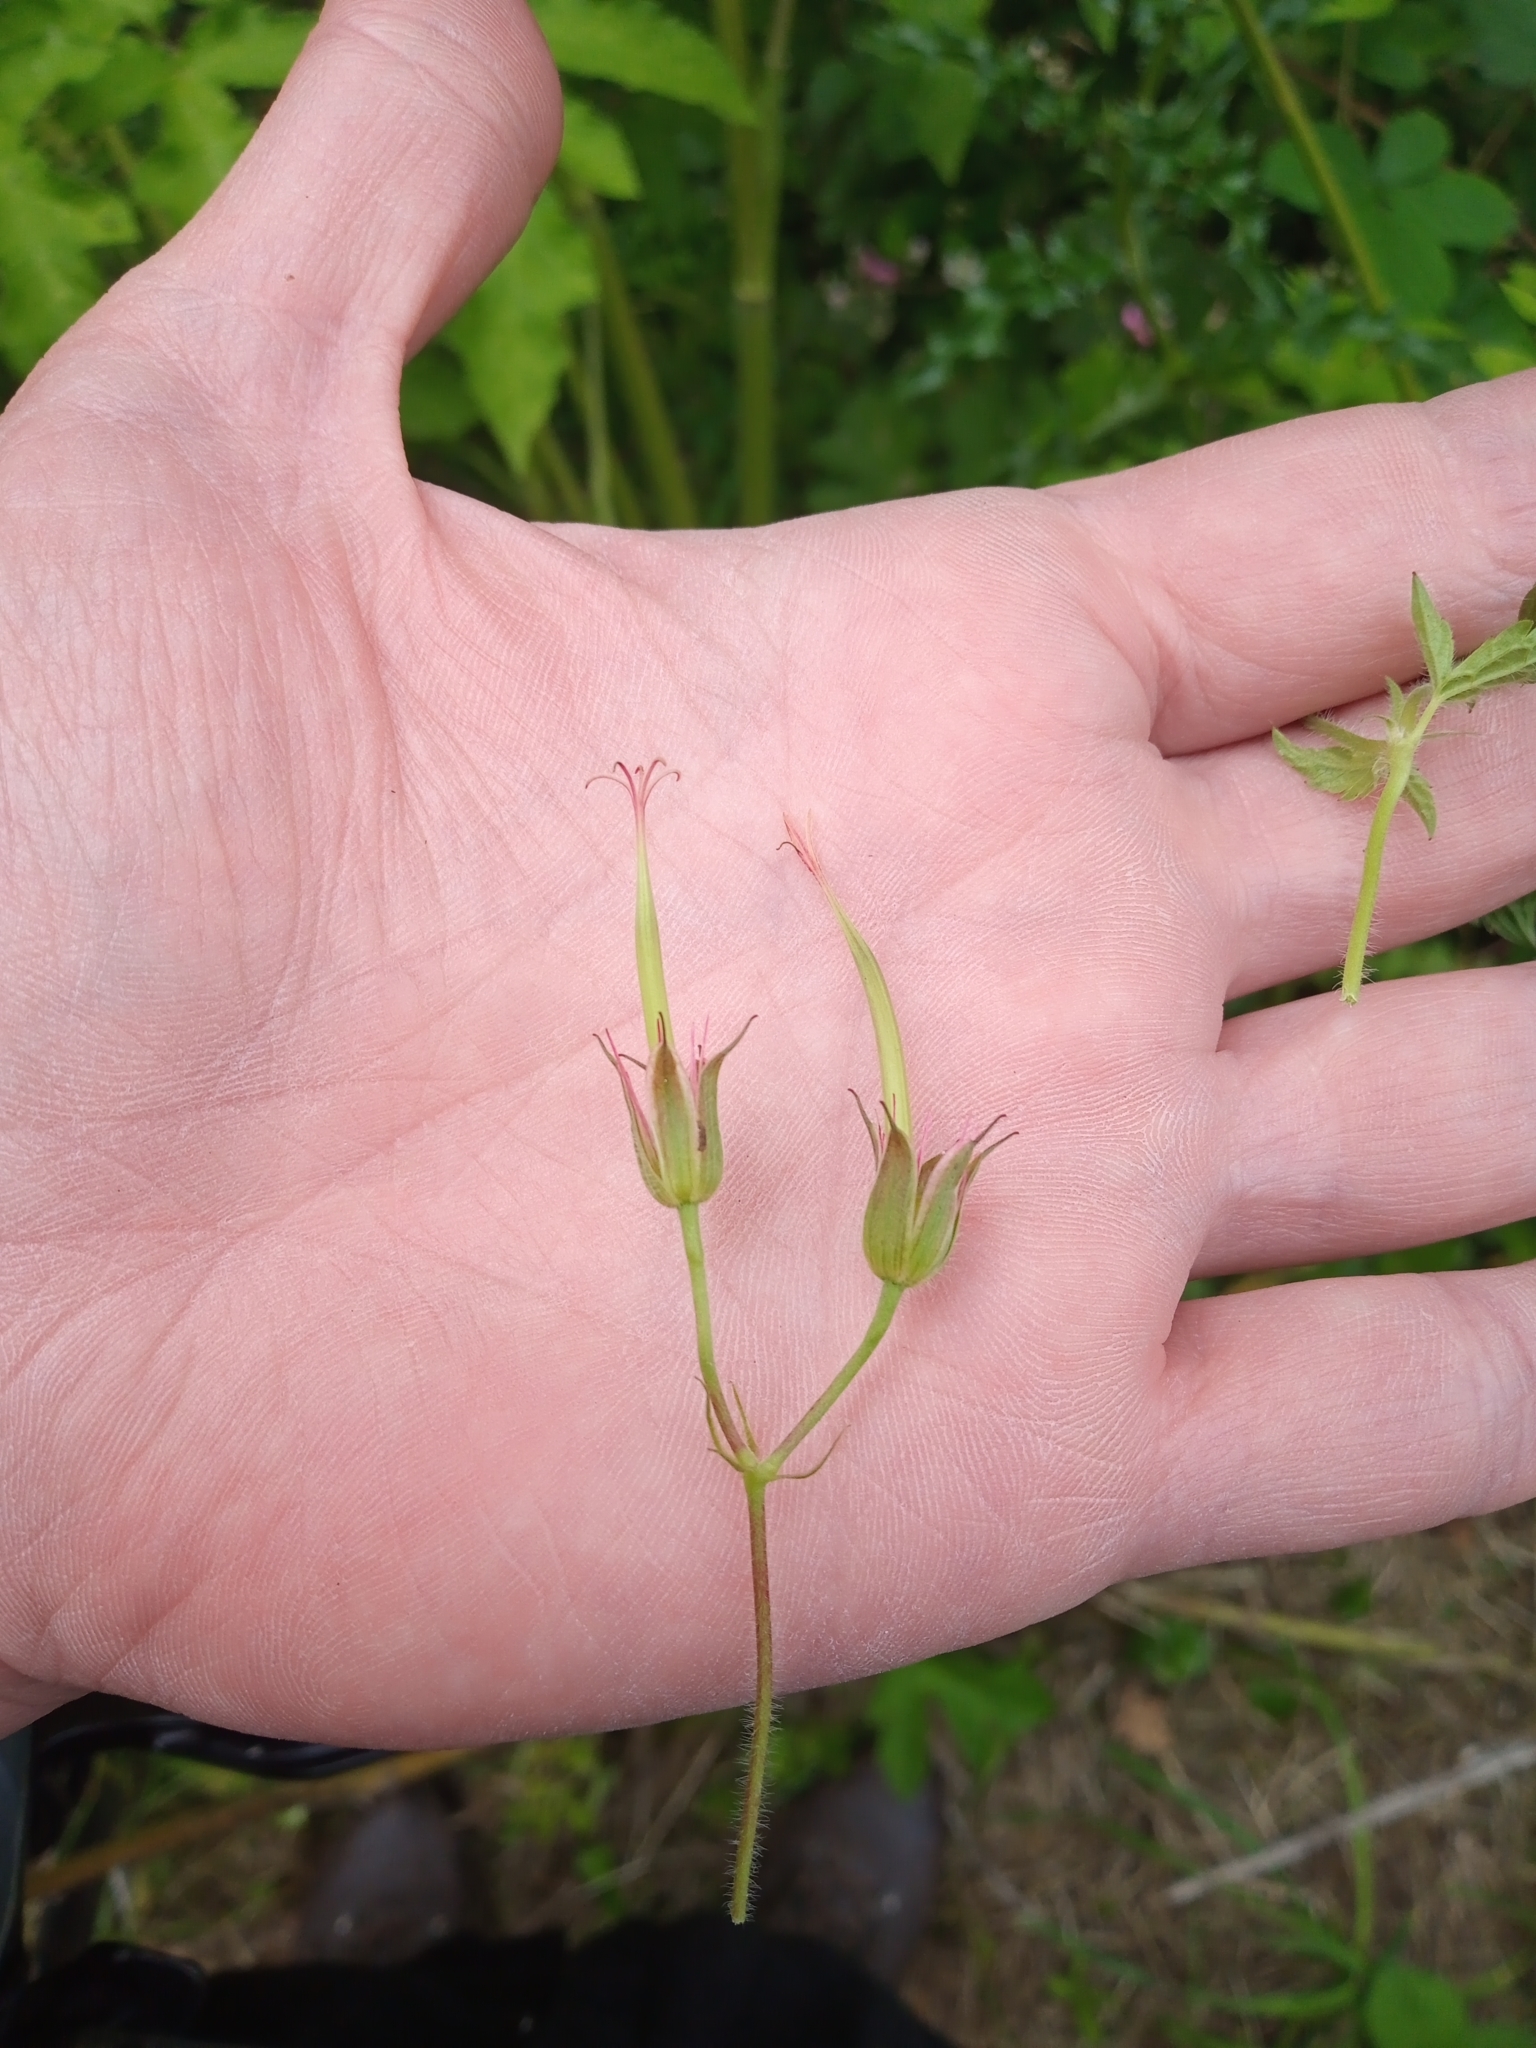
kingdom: Plantae
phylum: Tracheophyta
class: Magnoliopsida
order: Geraniales
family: Geraniaceae
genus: Geranium
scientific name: Geranium oxonianum
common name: Druce's crane's-bill
